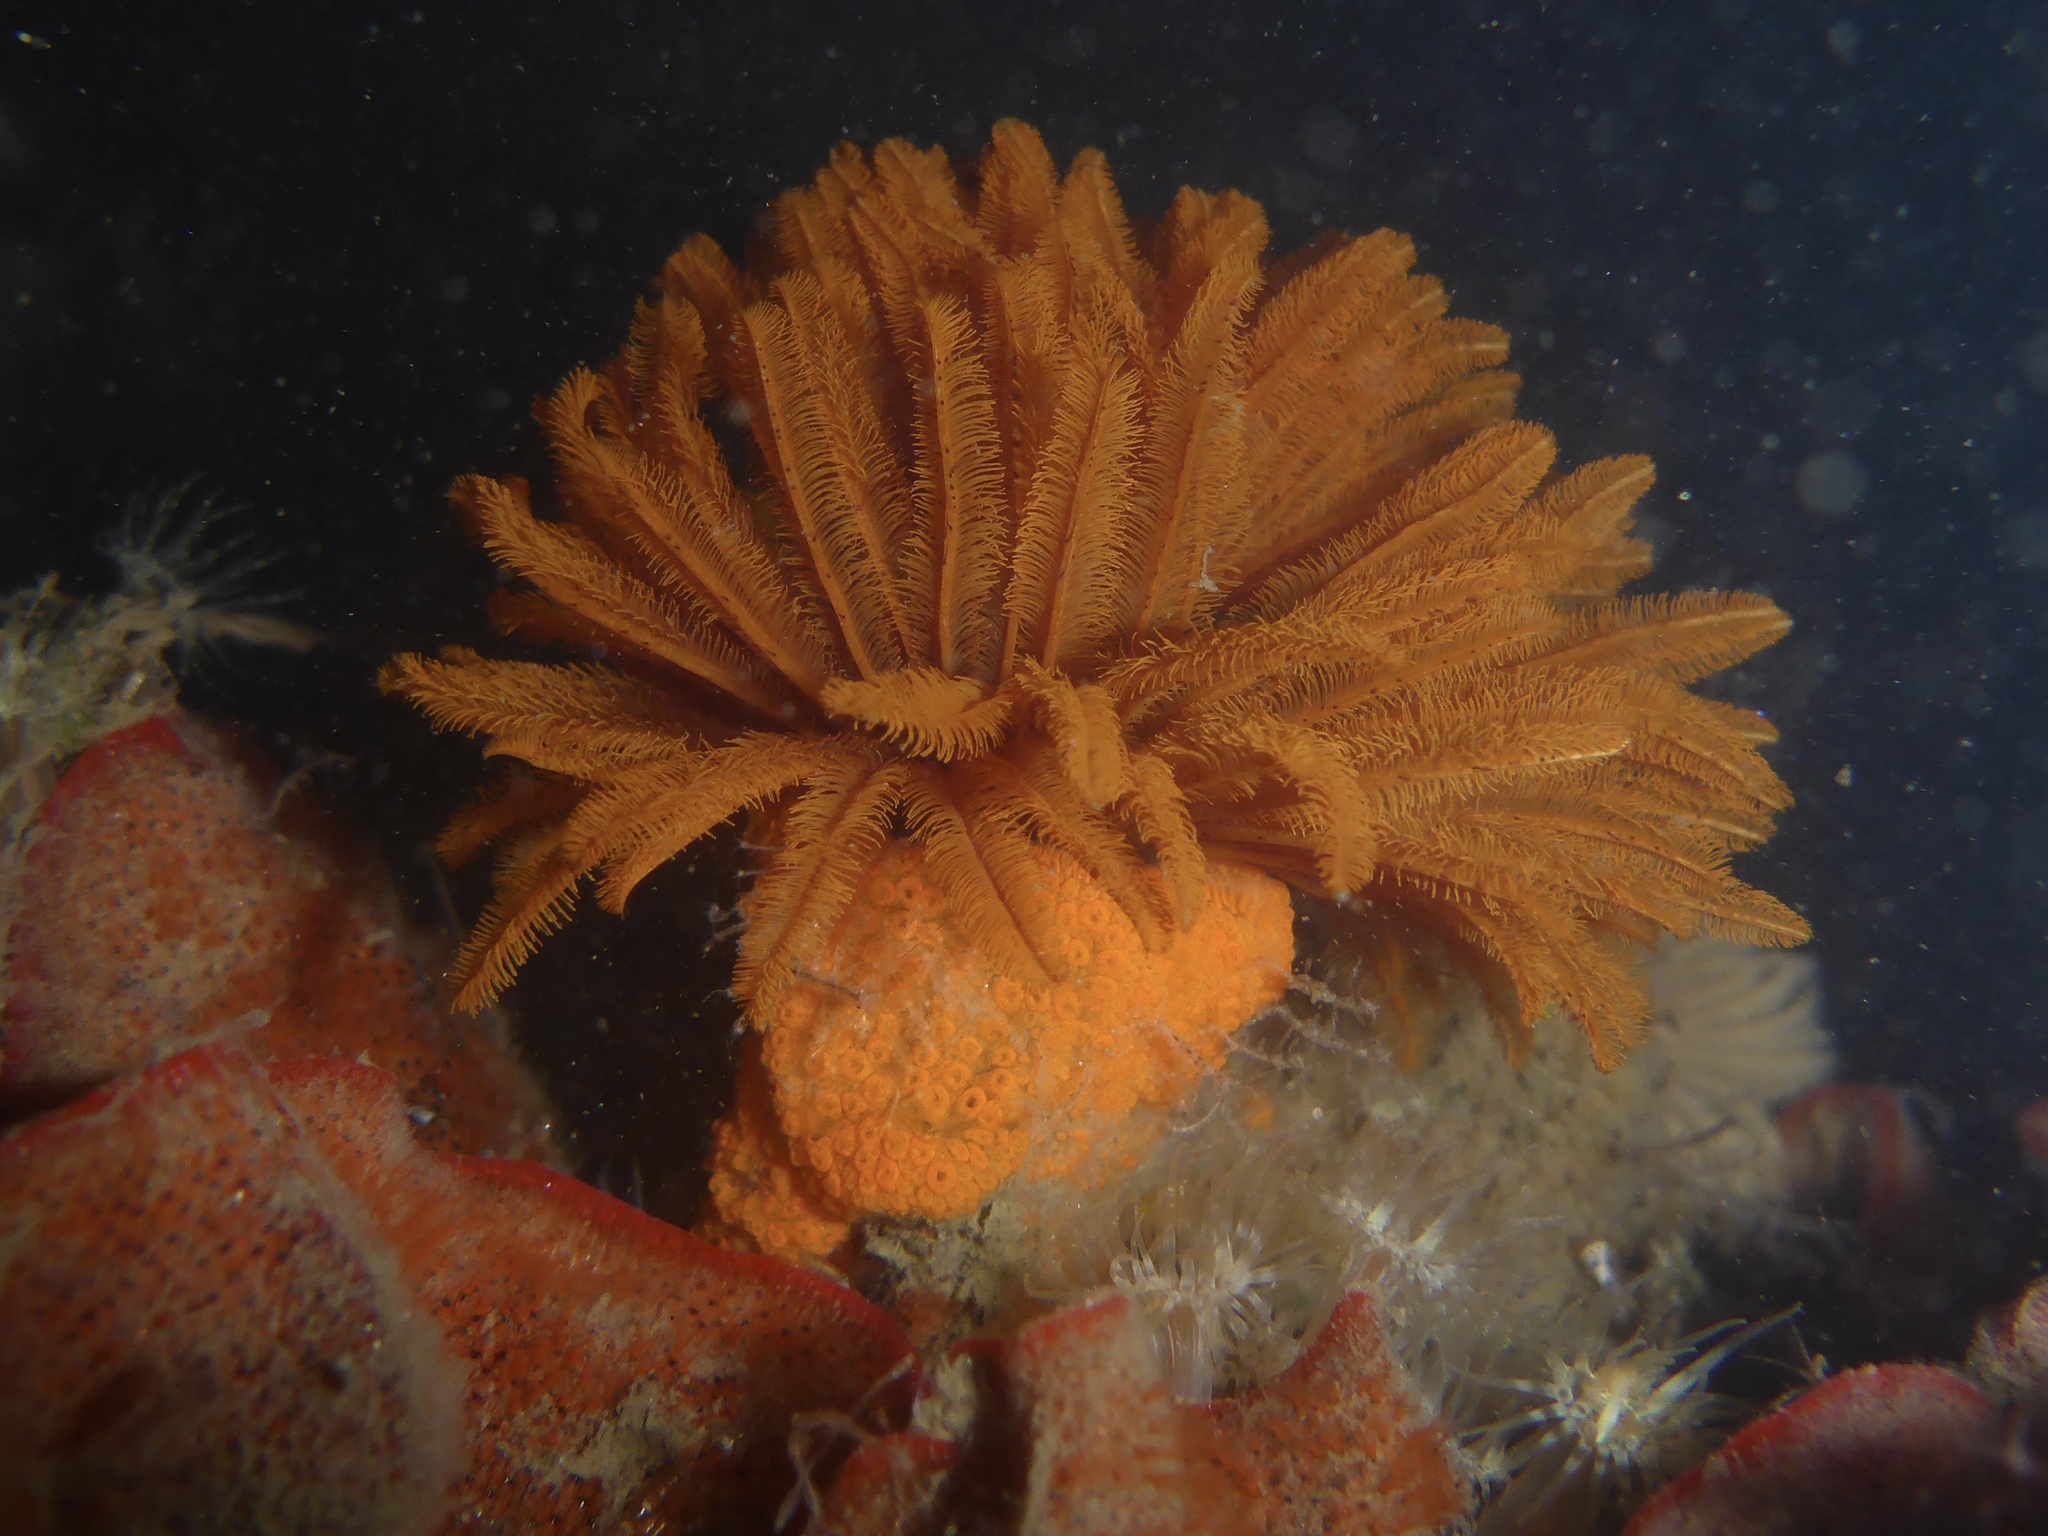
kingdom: Animalia
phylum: Annelida
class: Polychaeta
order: Sabellida
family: Sabellidae
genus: Eudistylia
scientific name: Eudistylia polymorpha
